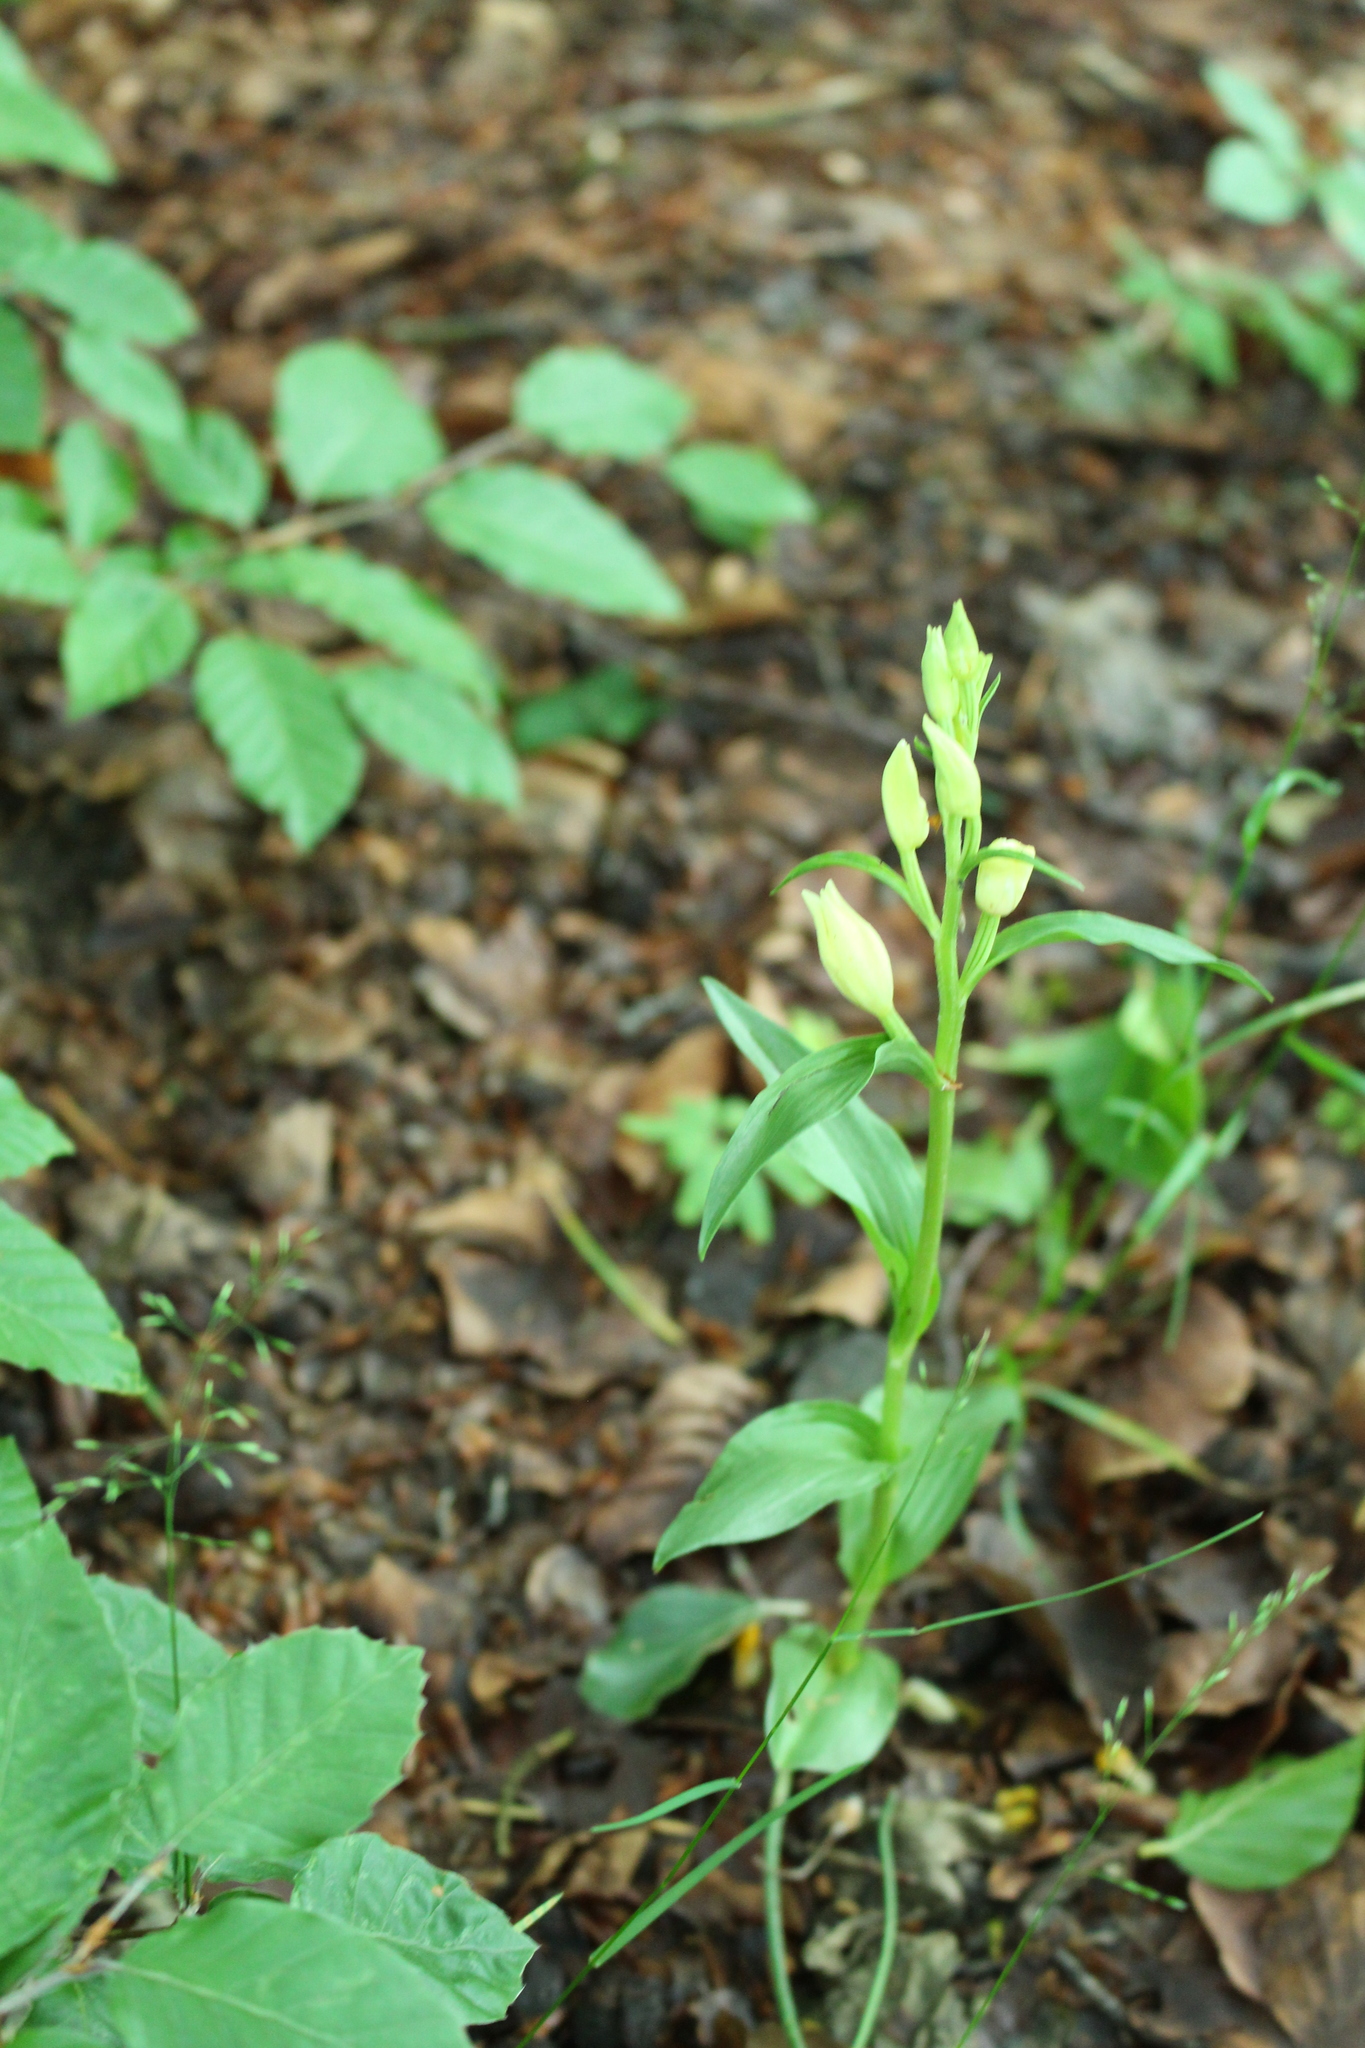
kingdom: Plantae
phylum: Tracheophyta
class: Liliopsida
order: Asparagales
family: Orchidaceae
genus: Cephalanthera
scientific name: Cephalanthera damasonium
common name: White helleborine
